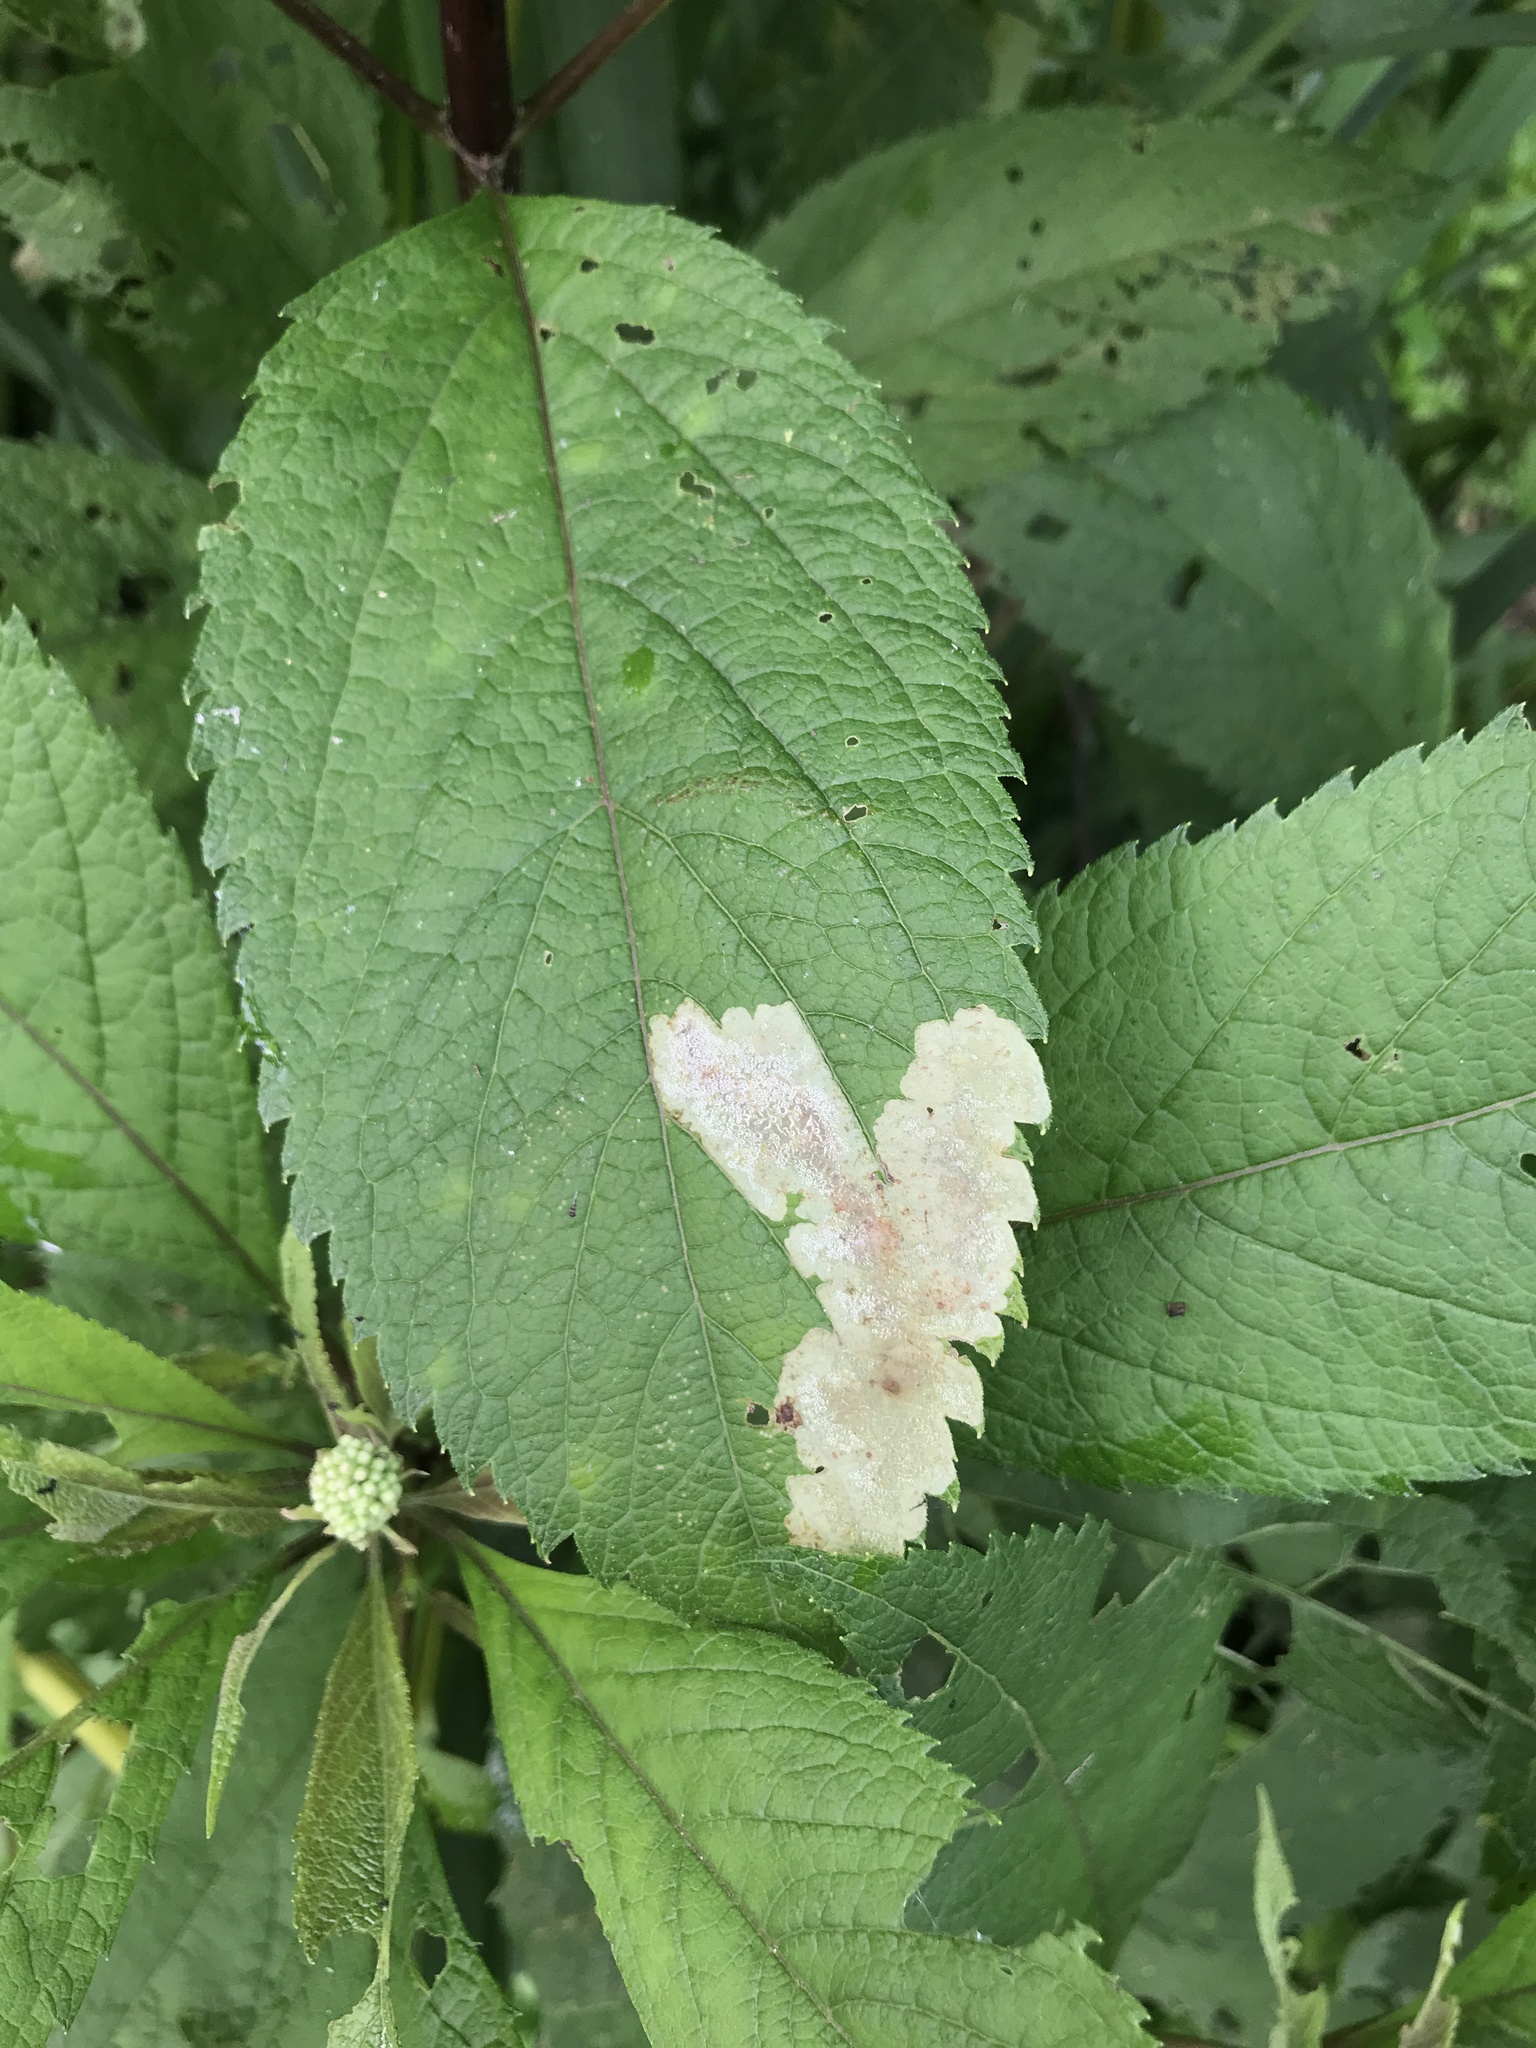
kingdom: Animalia
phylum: Arthropoda
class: Insecta
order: Diptera
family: Agromyzidae
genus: Calycomyza
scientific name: Calycomyza flavinotum
